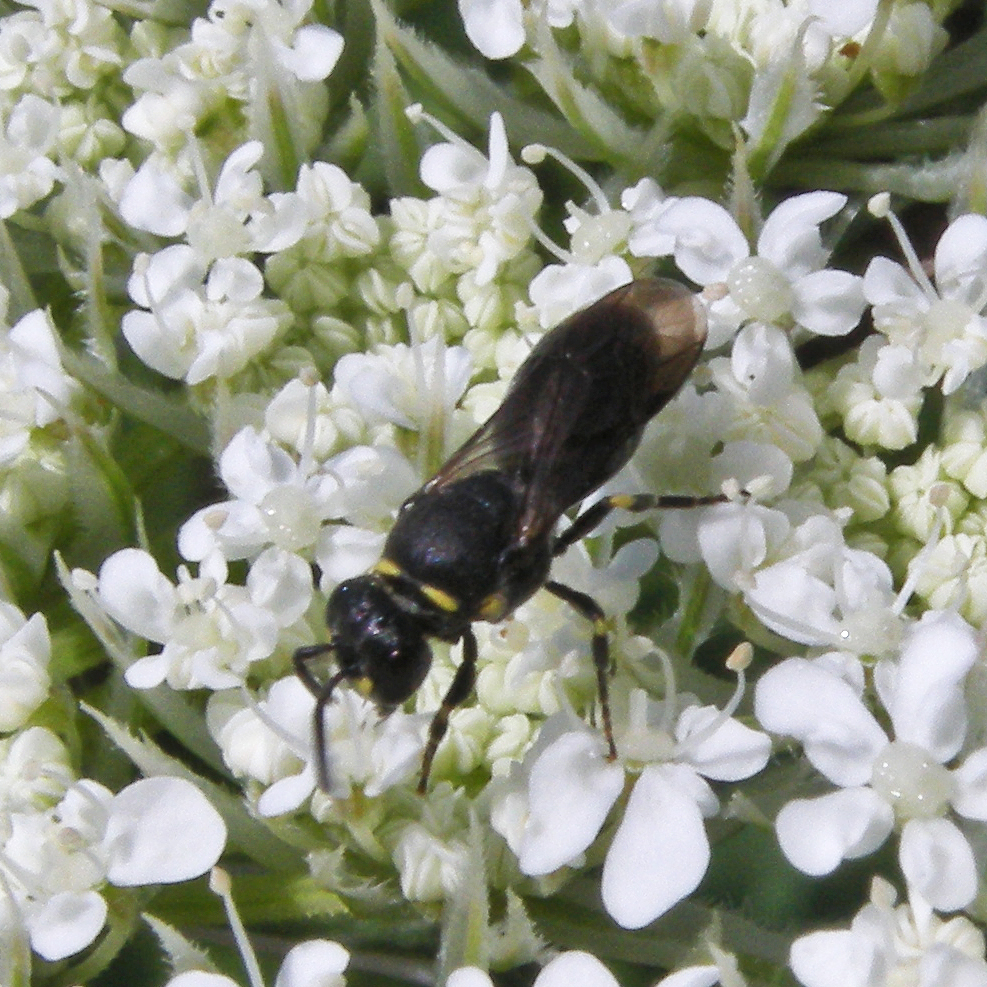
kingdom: Animalia
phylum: Arthropoda
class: Insecta
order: Hymenoptera
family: Colletidae
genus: Hylaeus
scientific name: Hylaeus modestus
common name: Yellow-faced bee
